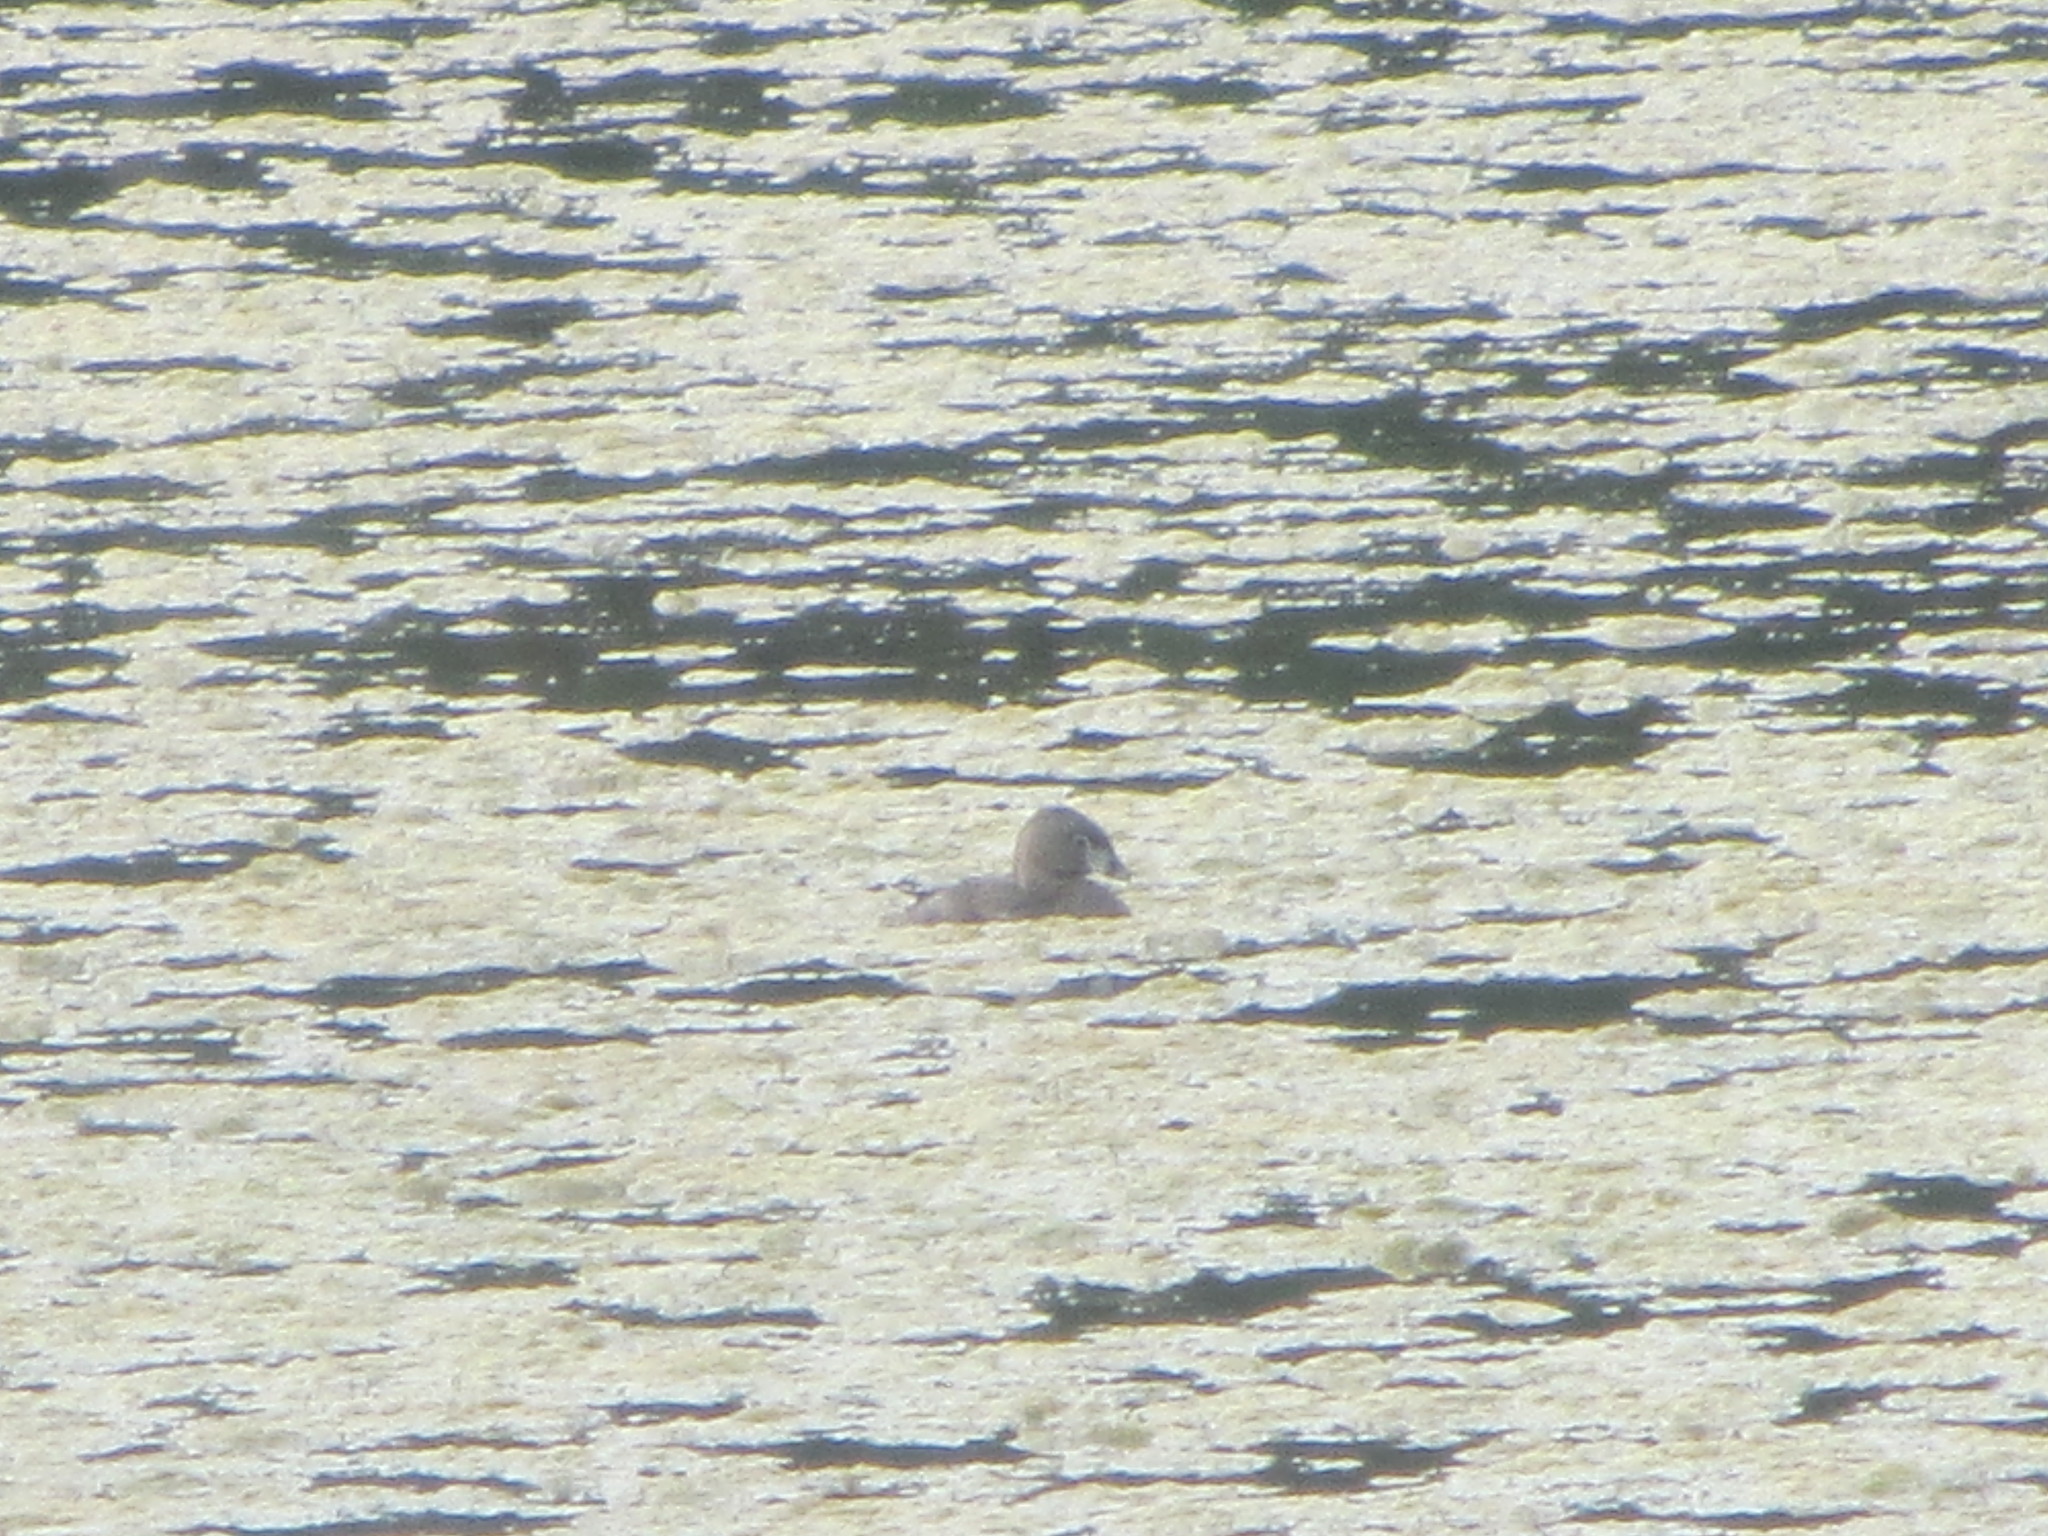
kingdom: Animalia
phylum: Chordata
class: Aves
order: Podicipediformes
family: Podicipedidae
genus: Podilymbus
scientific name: Podilymbus podiceps
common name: Pied-billed grebe
